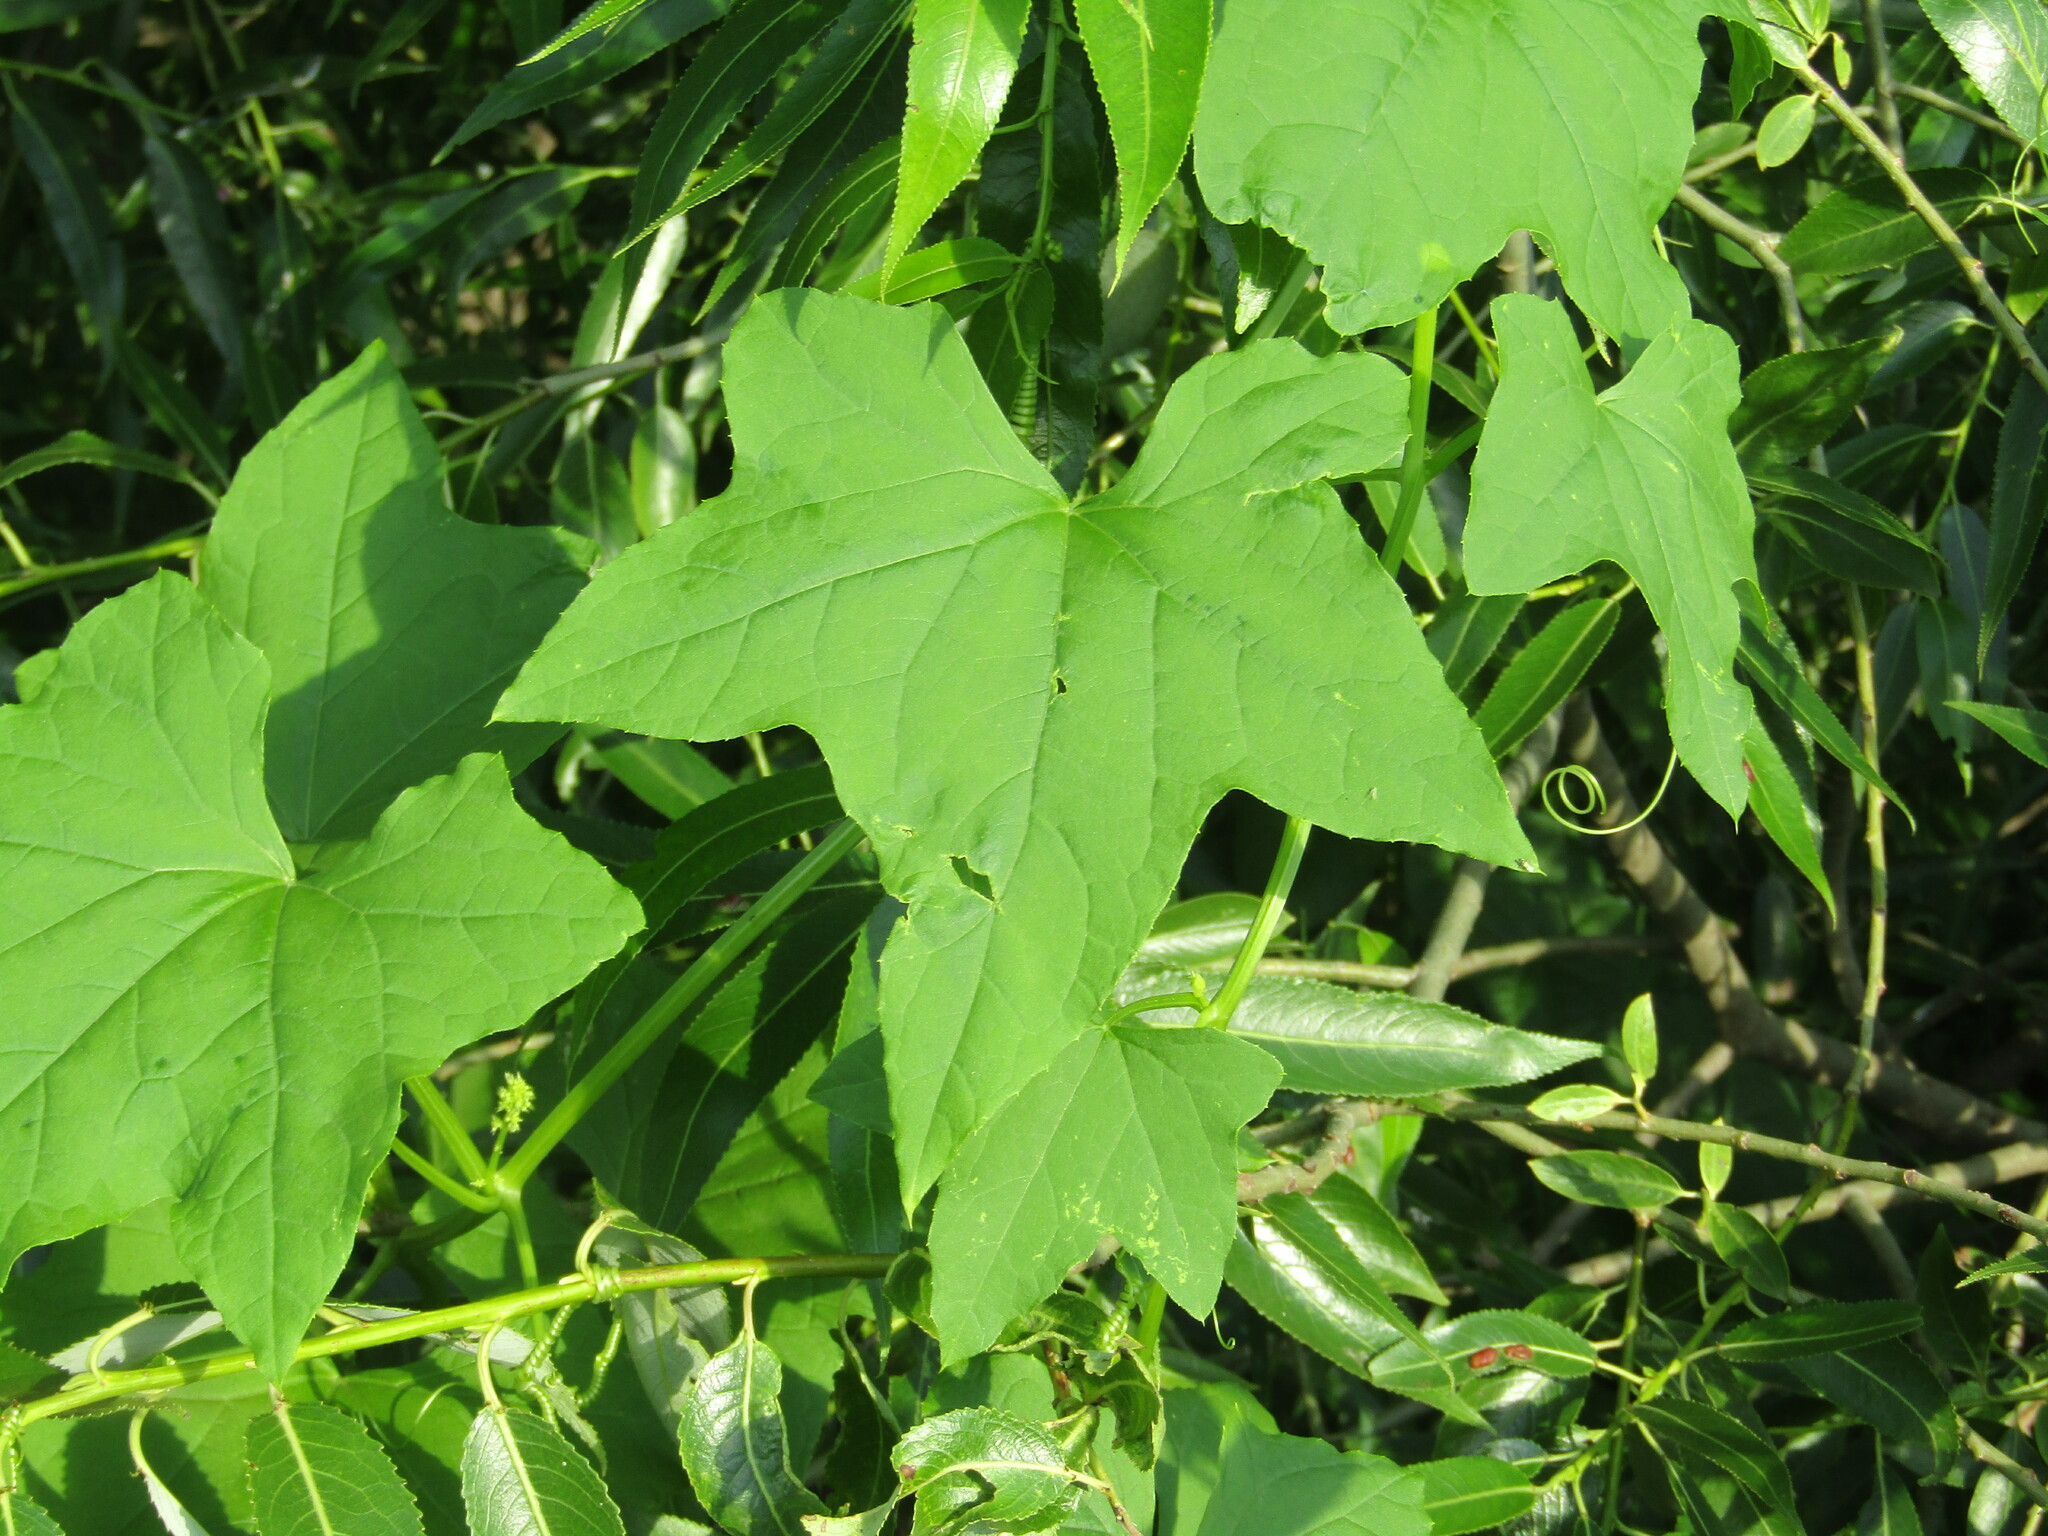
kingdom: Plantae
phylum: Tracheophyta
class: Magnoliopsida
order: Cucurbitales
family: Cucurbitaceae
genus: Echinocystis
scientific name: Echinocystis lobata
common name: Wild cucumber
